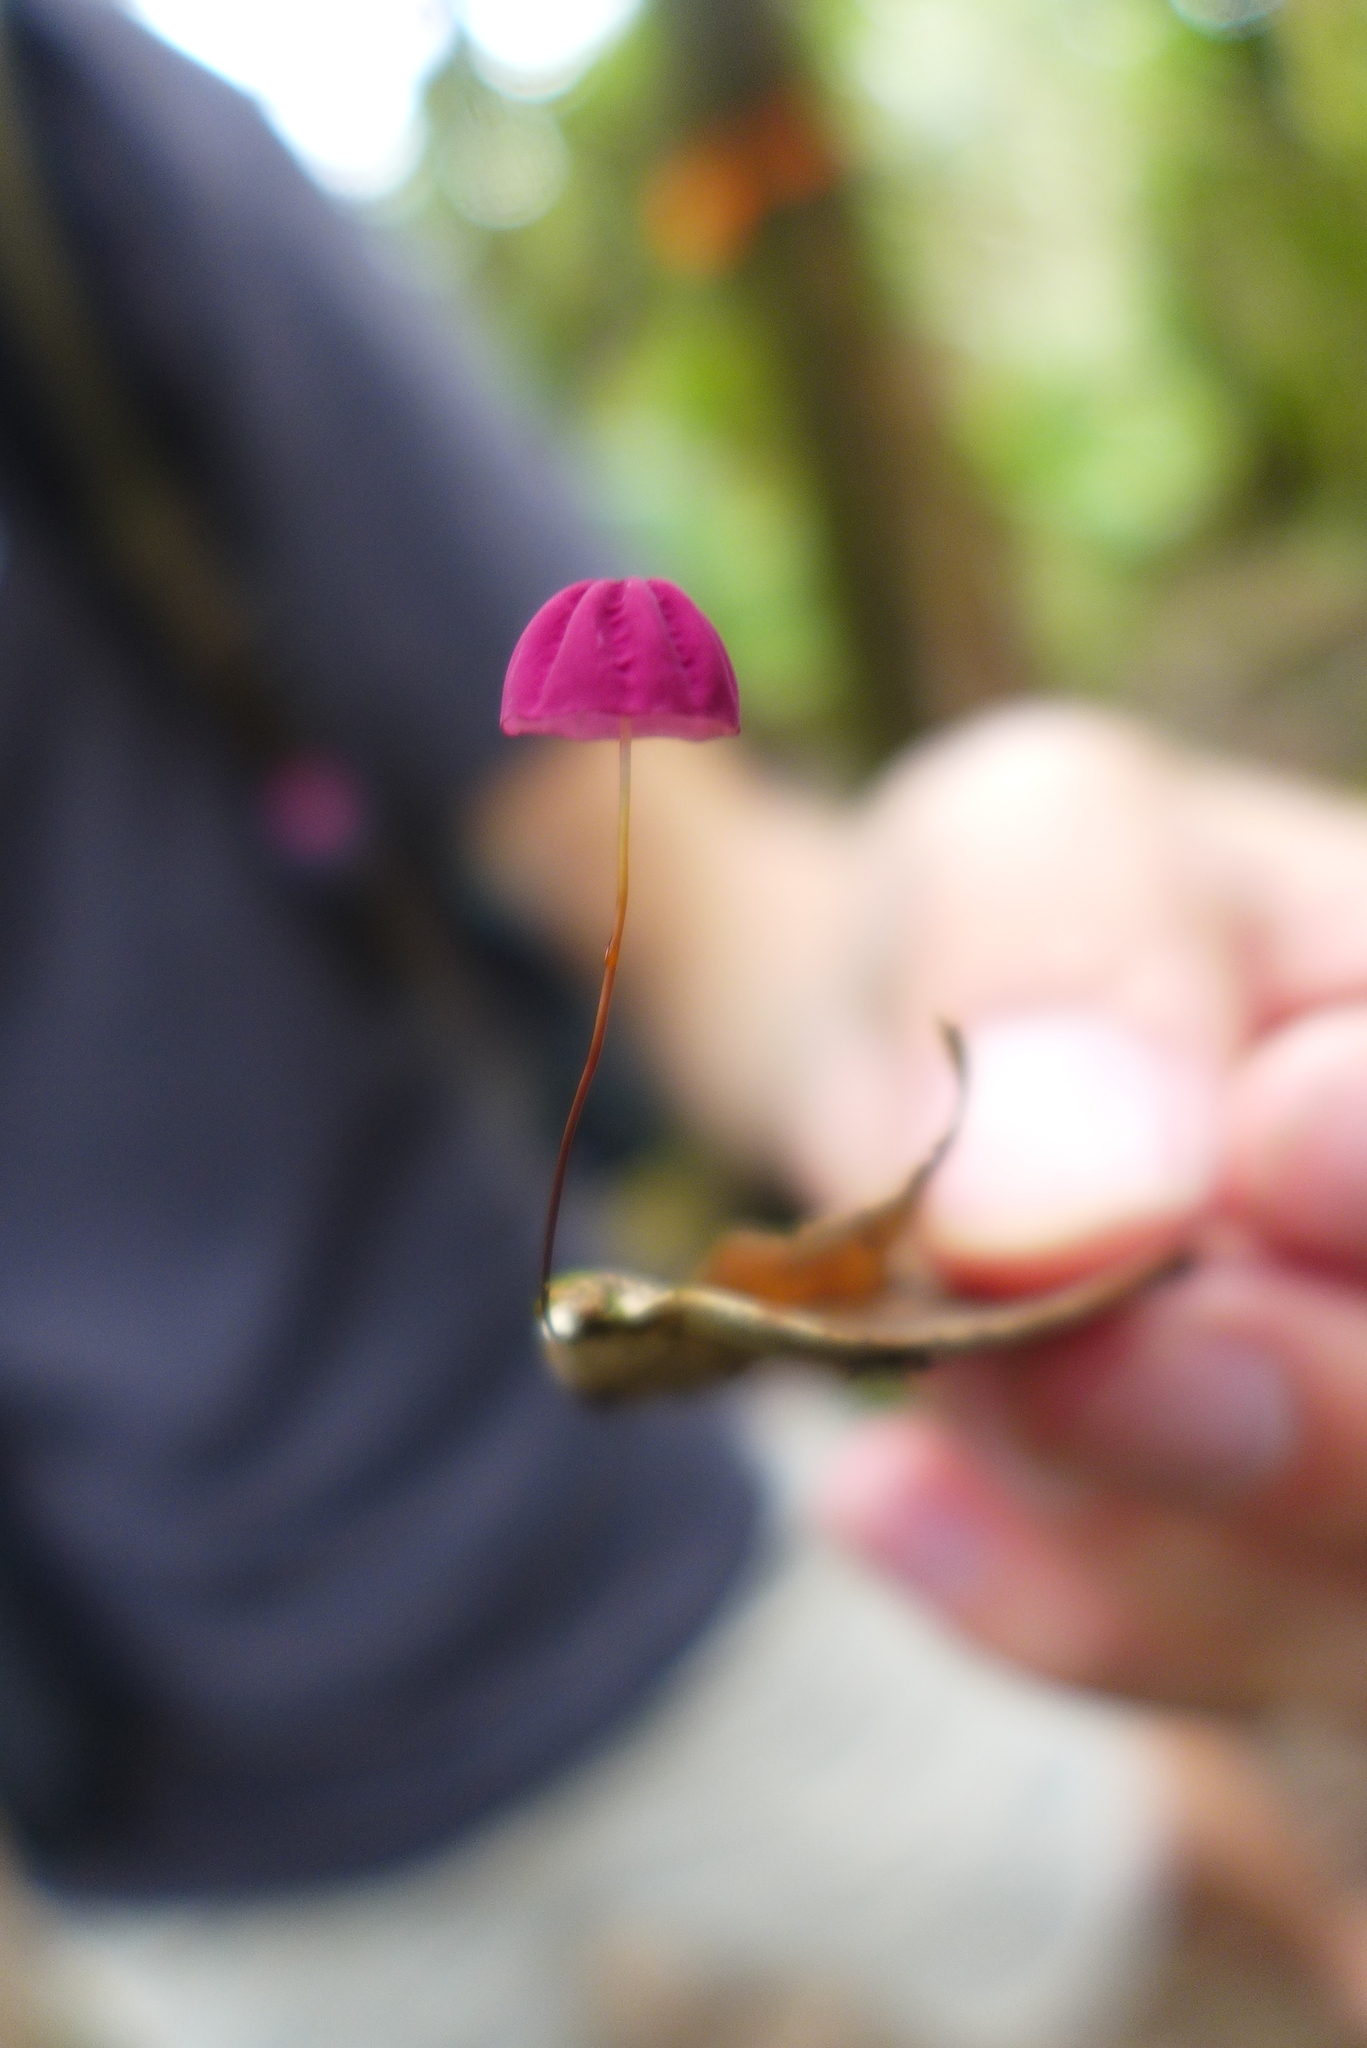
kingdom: Fungi
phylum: Basidiomycota
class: Agaricomycetes
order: Agaricales
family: Marasmiaceae
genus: Marasmius
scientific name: Marasmius haematocephalus
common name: Purple pinwheel
